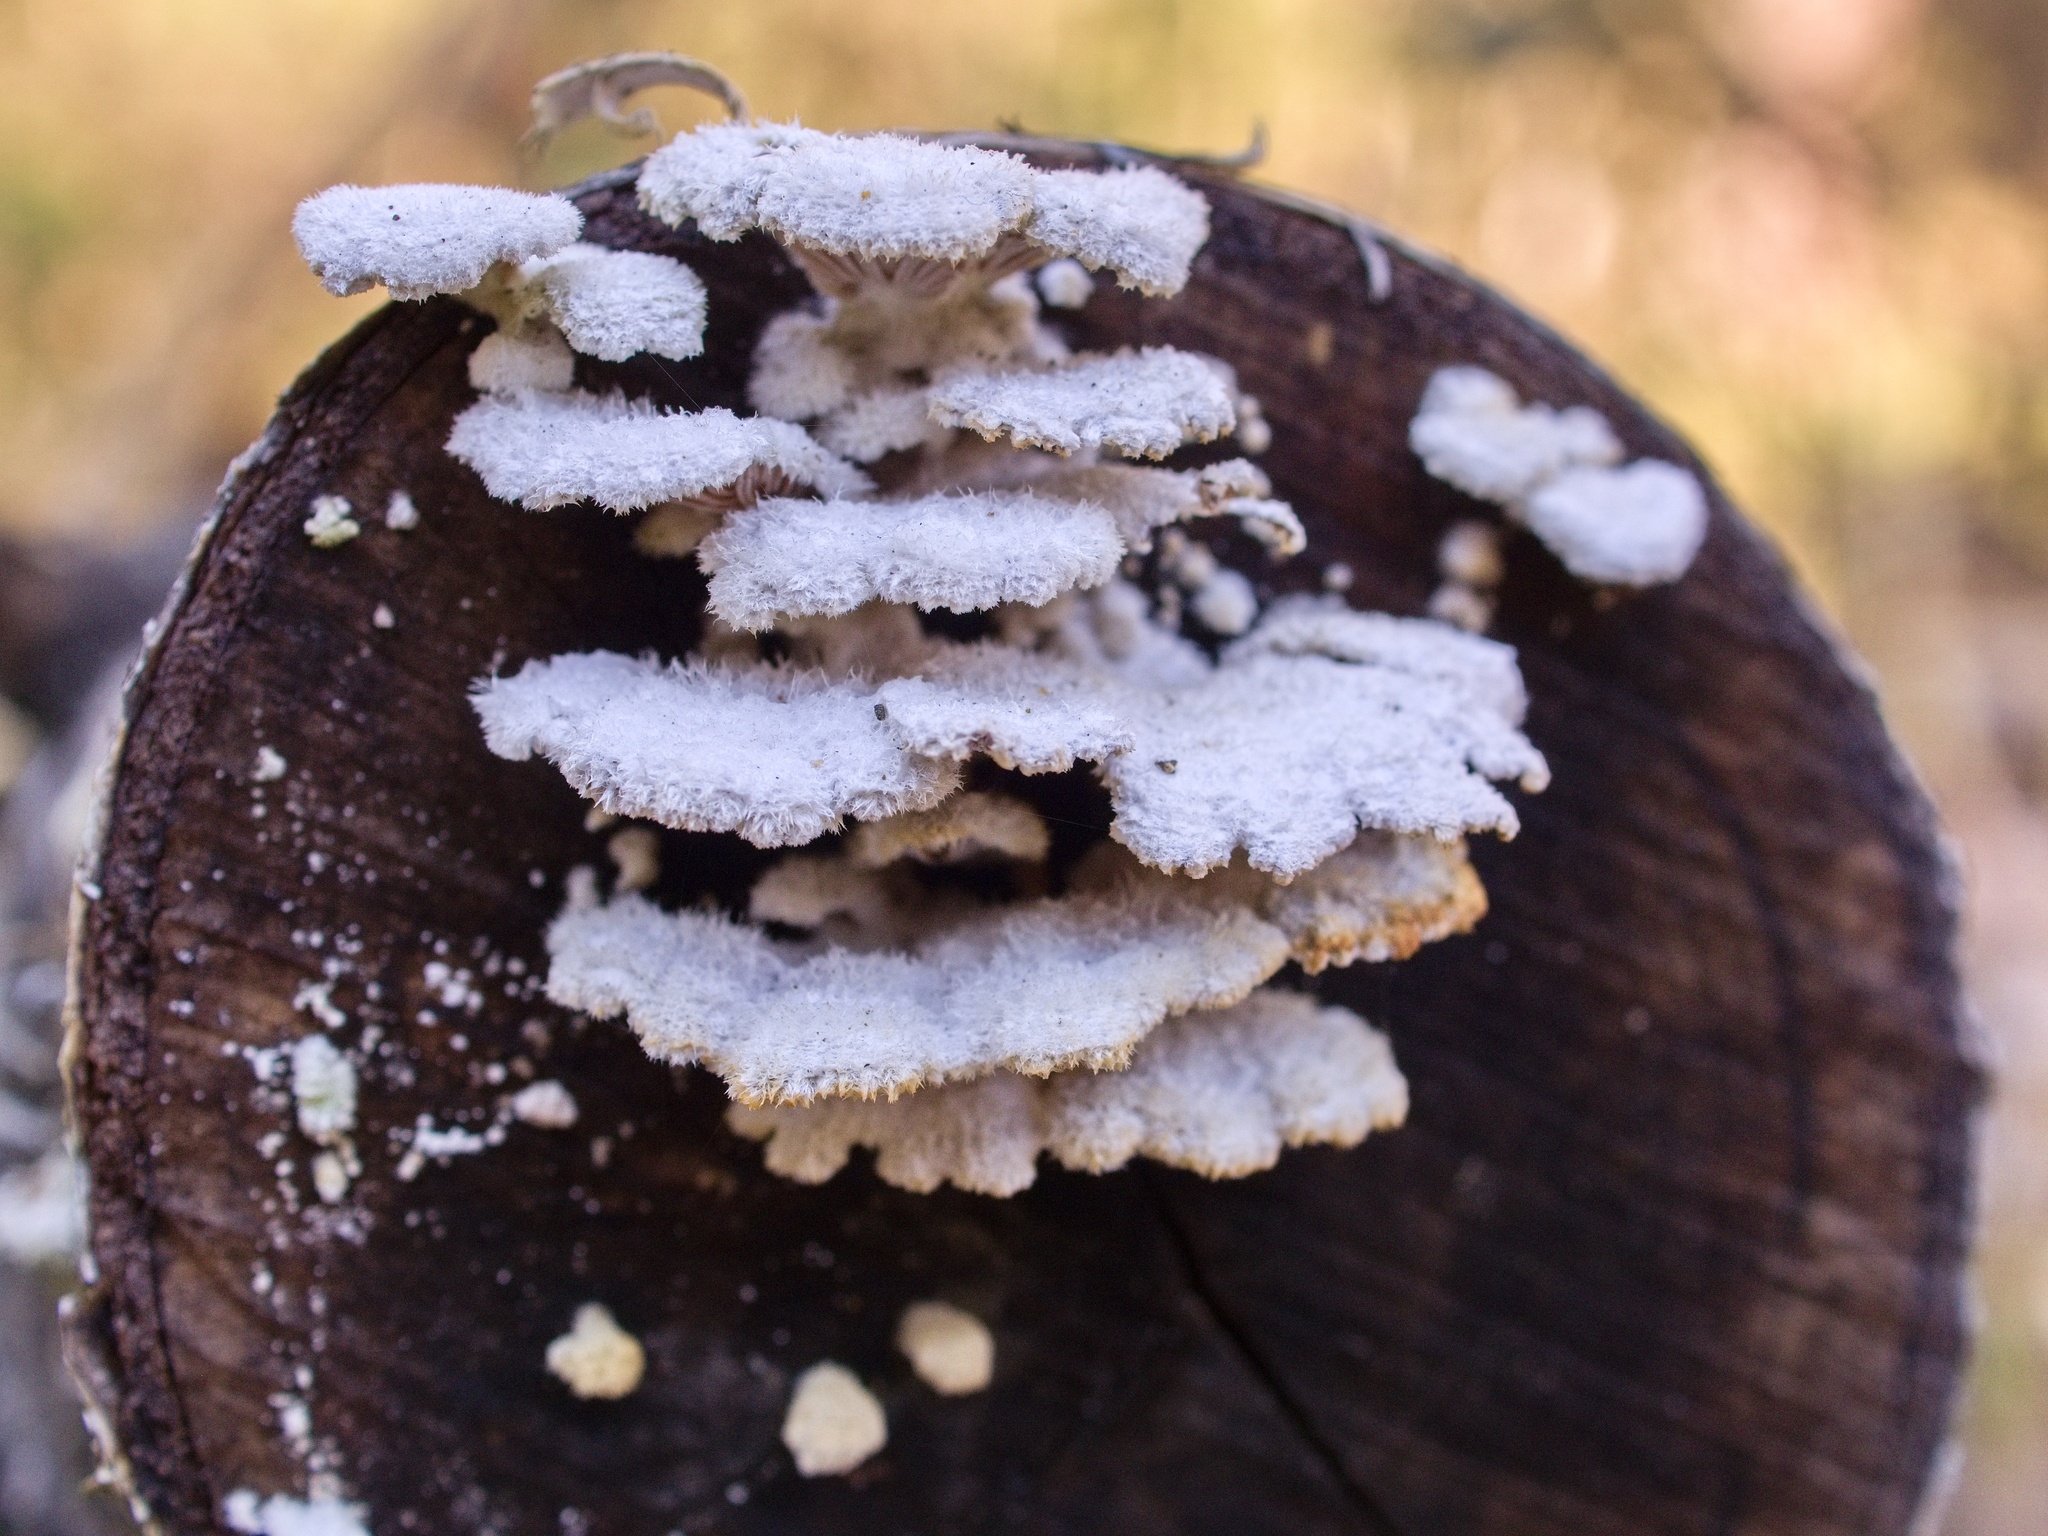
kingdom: Fungi
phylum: Basidiomycota
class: Agaricomycetes
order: Agaricales
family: Schizophyllaceae
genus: Schizophyllum
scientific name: Schizophyllum commune
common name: Common porecrust
